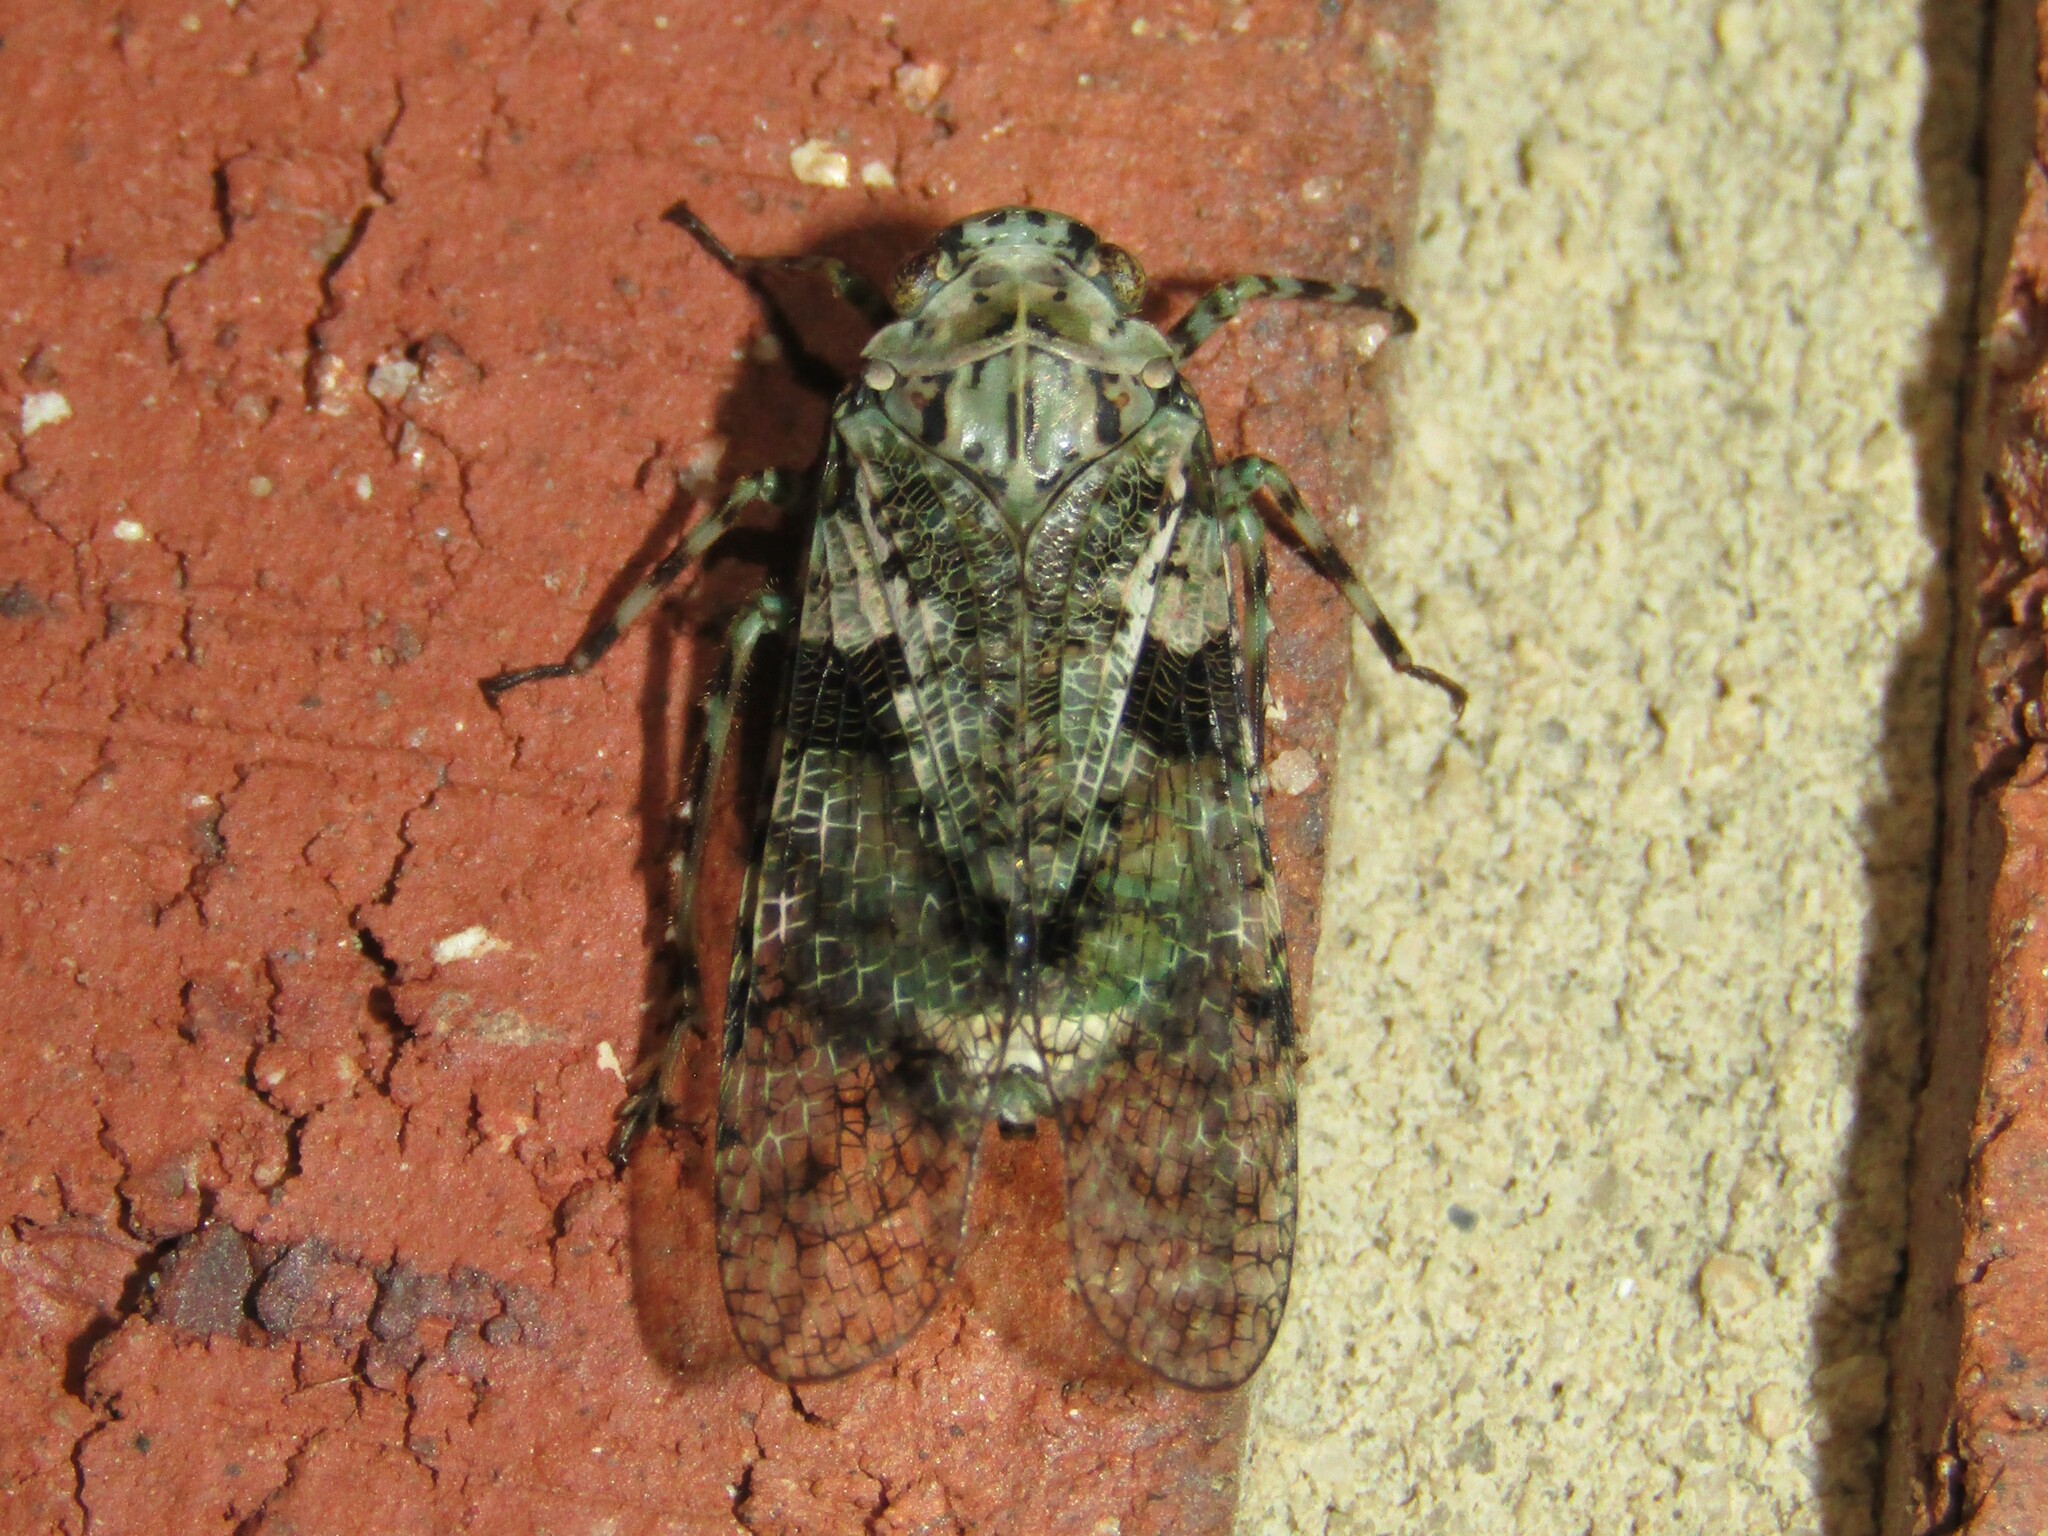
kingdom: Animalia
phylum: Arthropoda
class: Insecta
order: Hemiptera
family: Fulgoridae
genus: Calyptoproctus
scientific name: Calyptoproctus marmoratus
